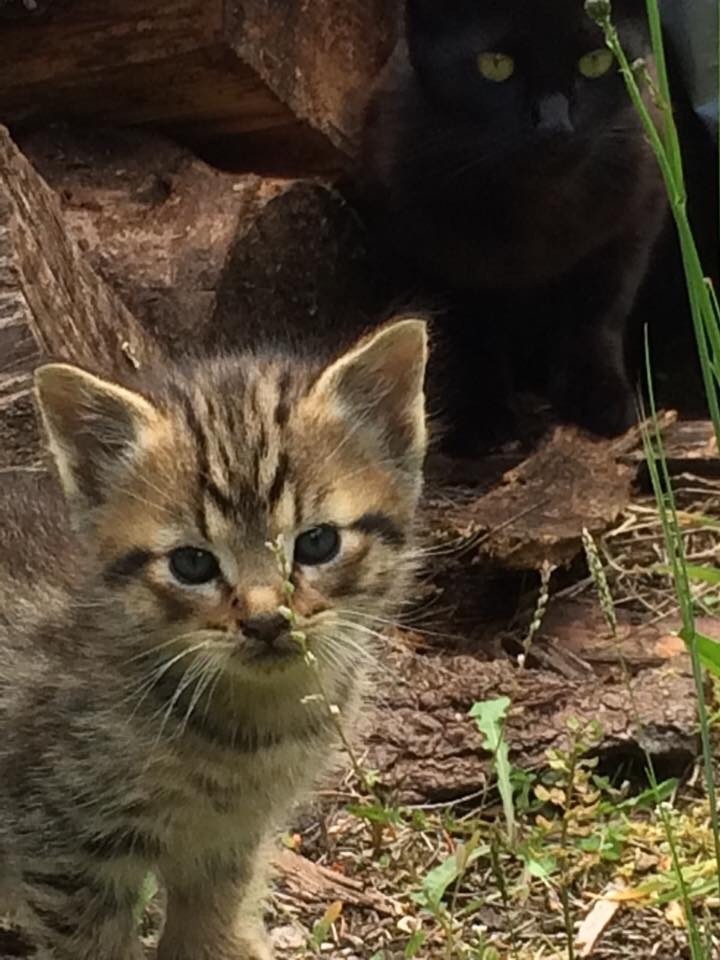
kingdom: Animalia
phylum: Chordata
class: Mammalia
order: Carnivora
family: Felidae
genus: Felis
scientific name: Felis catus
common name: Domestic cat
